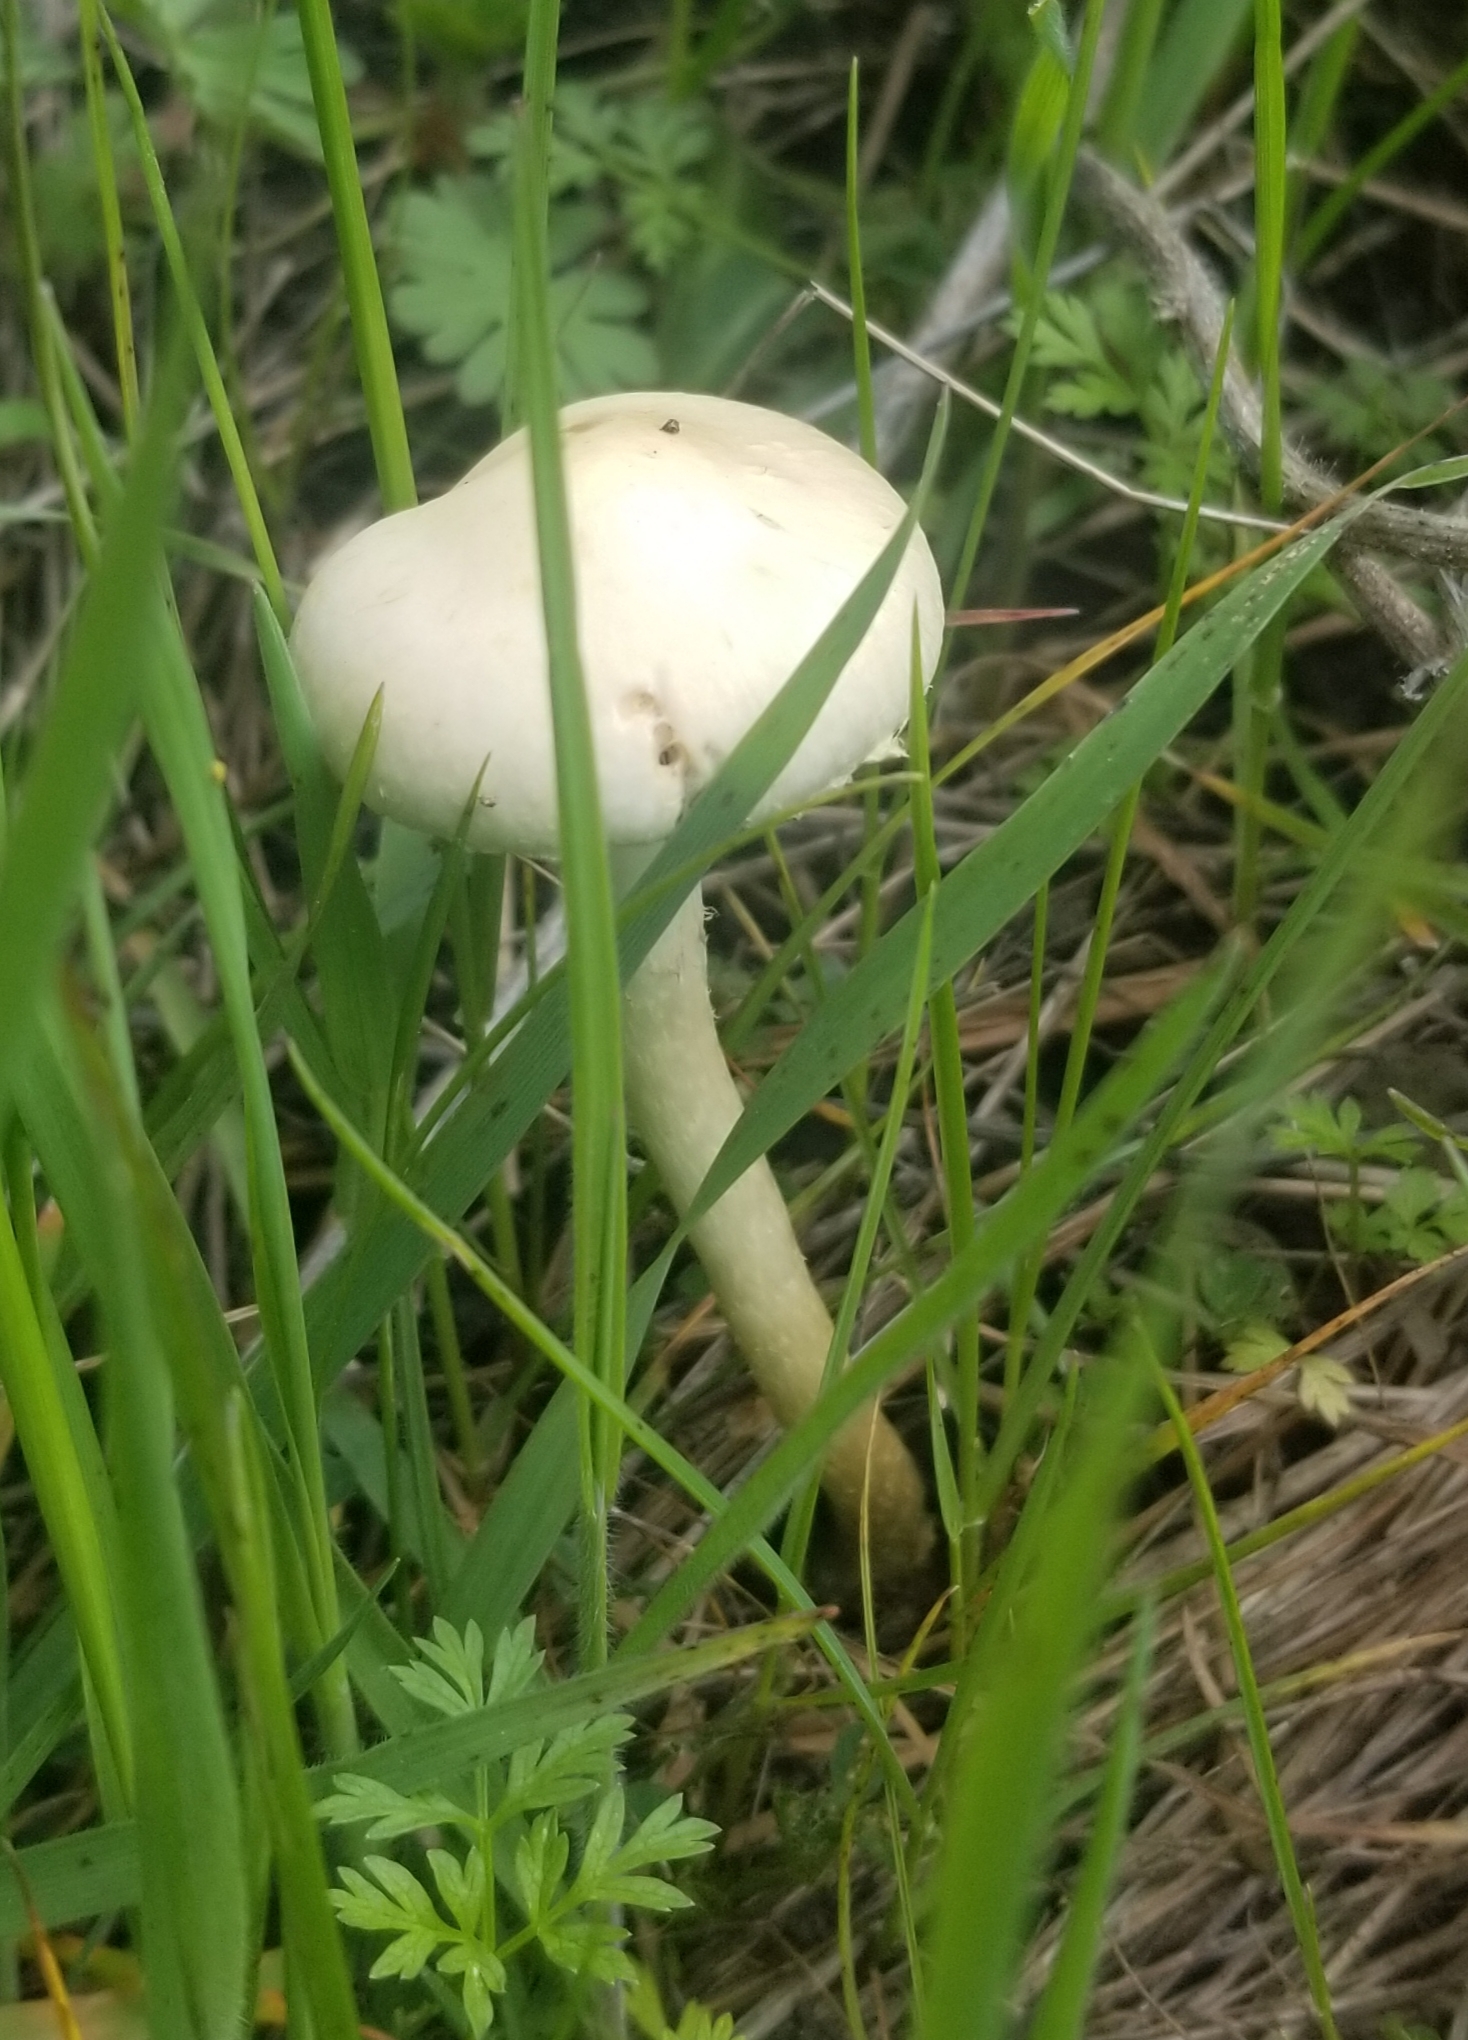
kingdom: Fungi
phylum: Basidiomycota
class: Agaricomycetes
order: Agaricales
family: Strophariaceae
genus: Leratiomyces
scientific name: Leratiomyces percevalii
